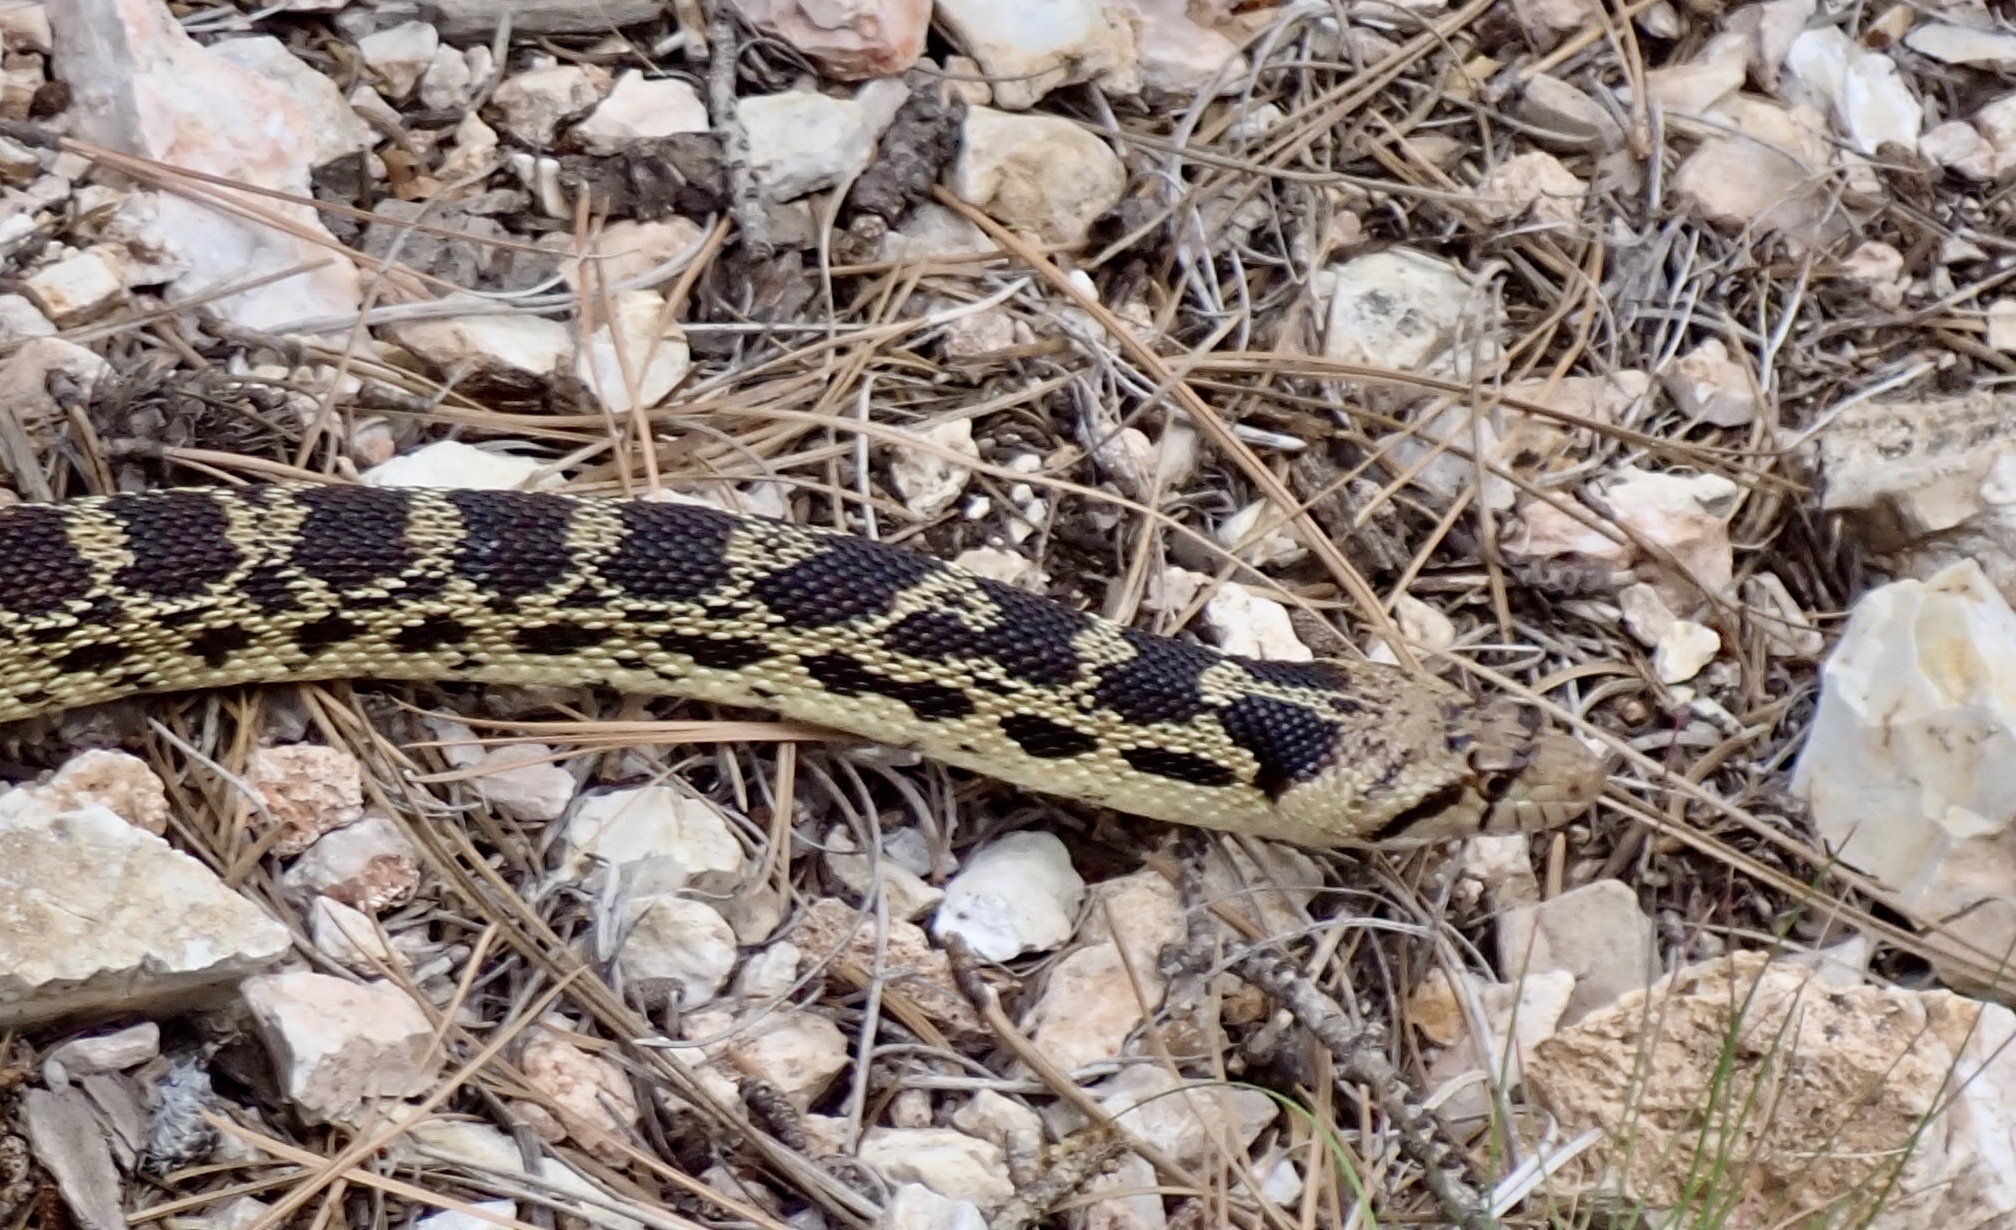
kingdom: Animalia
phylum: Chordata
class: Squamata
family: Colubridae
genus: Pituophis
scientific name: Pituophis catenifer
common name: Gopher snake
